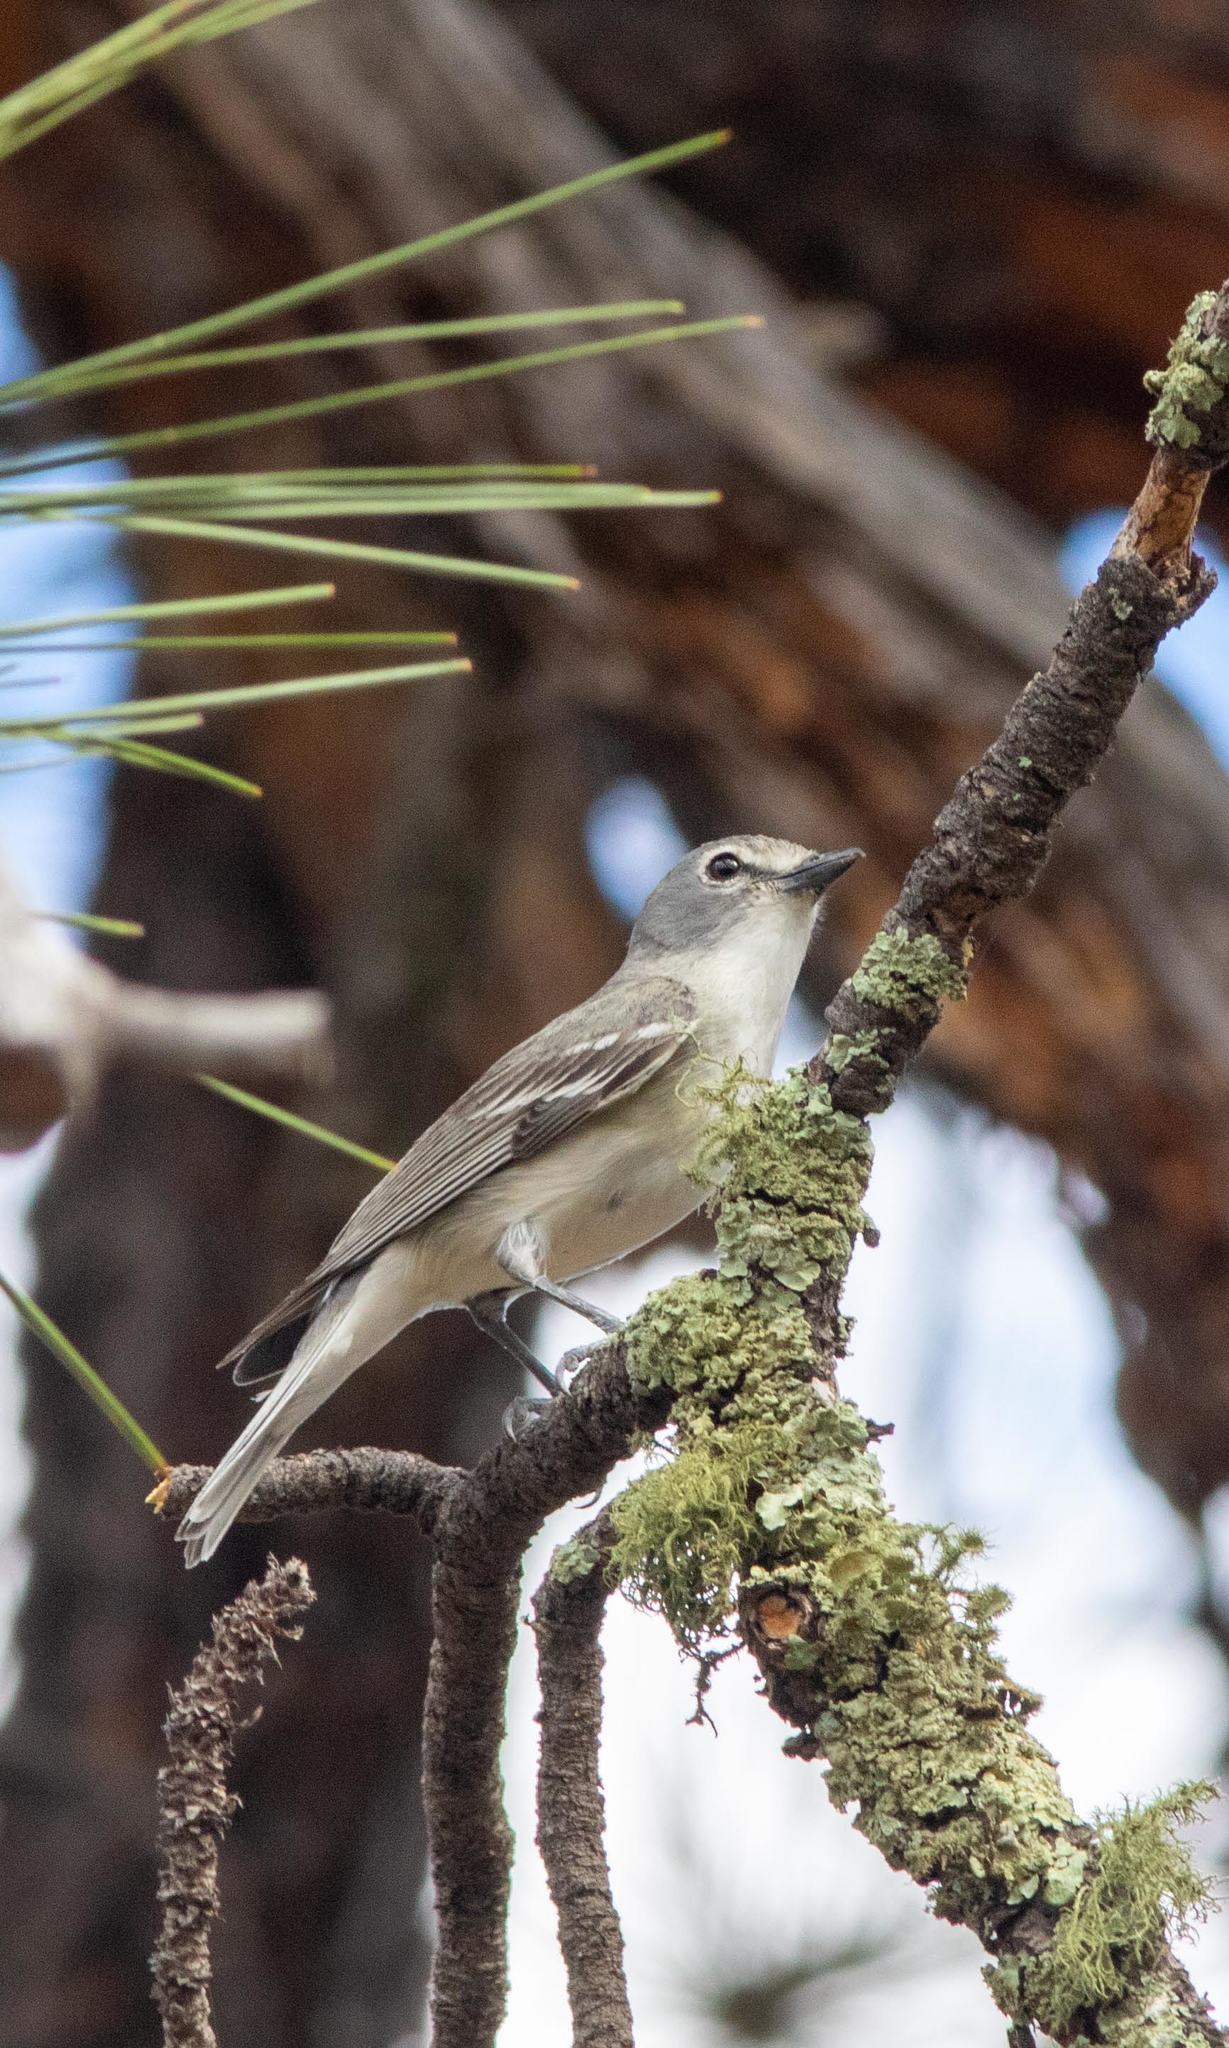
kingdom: Animalia
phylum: Chordata
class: Aves
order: Passeriformes
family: Vireonidae
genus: Vireo
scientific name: Vireo plumbeus
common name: Plumbeous vireo
